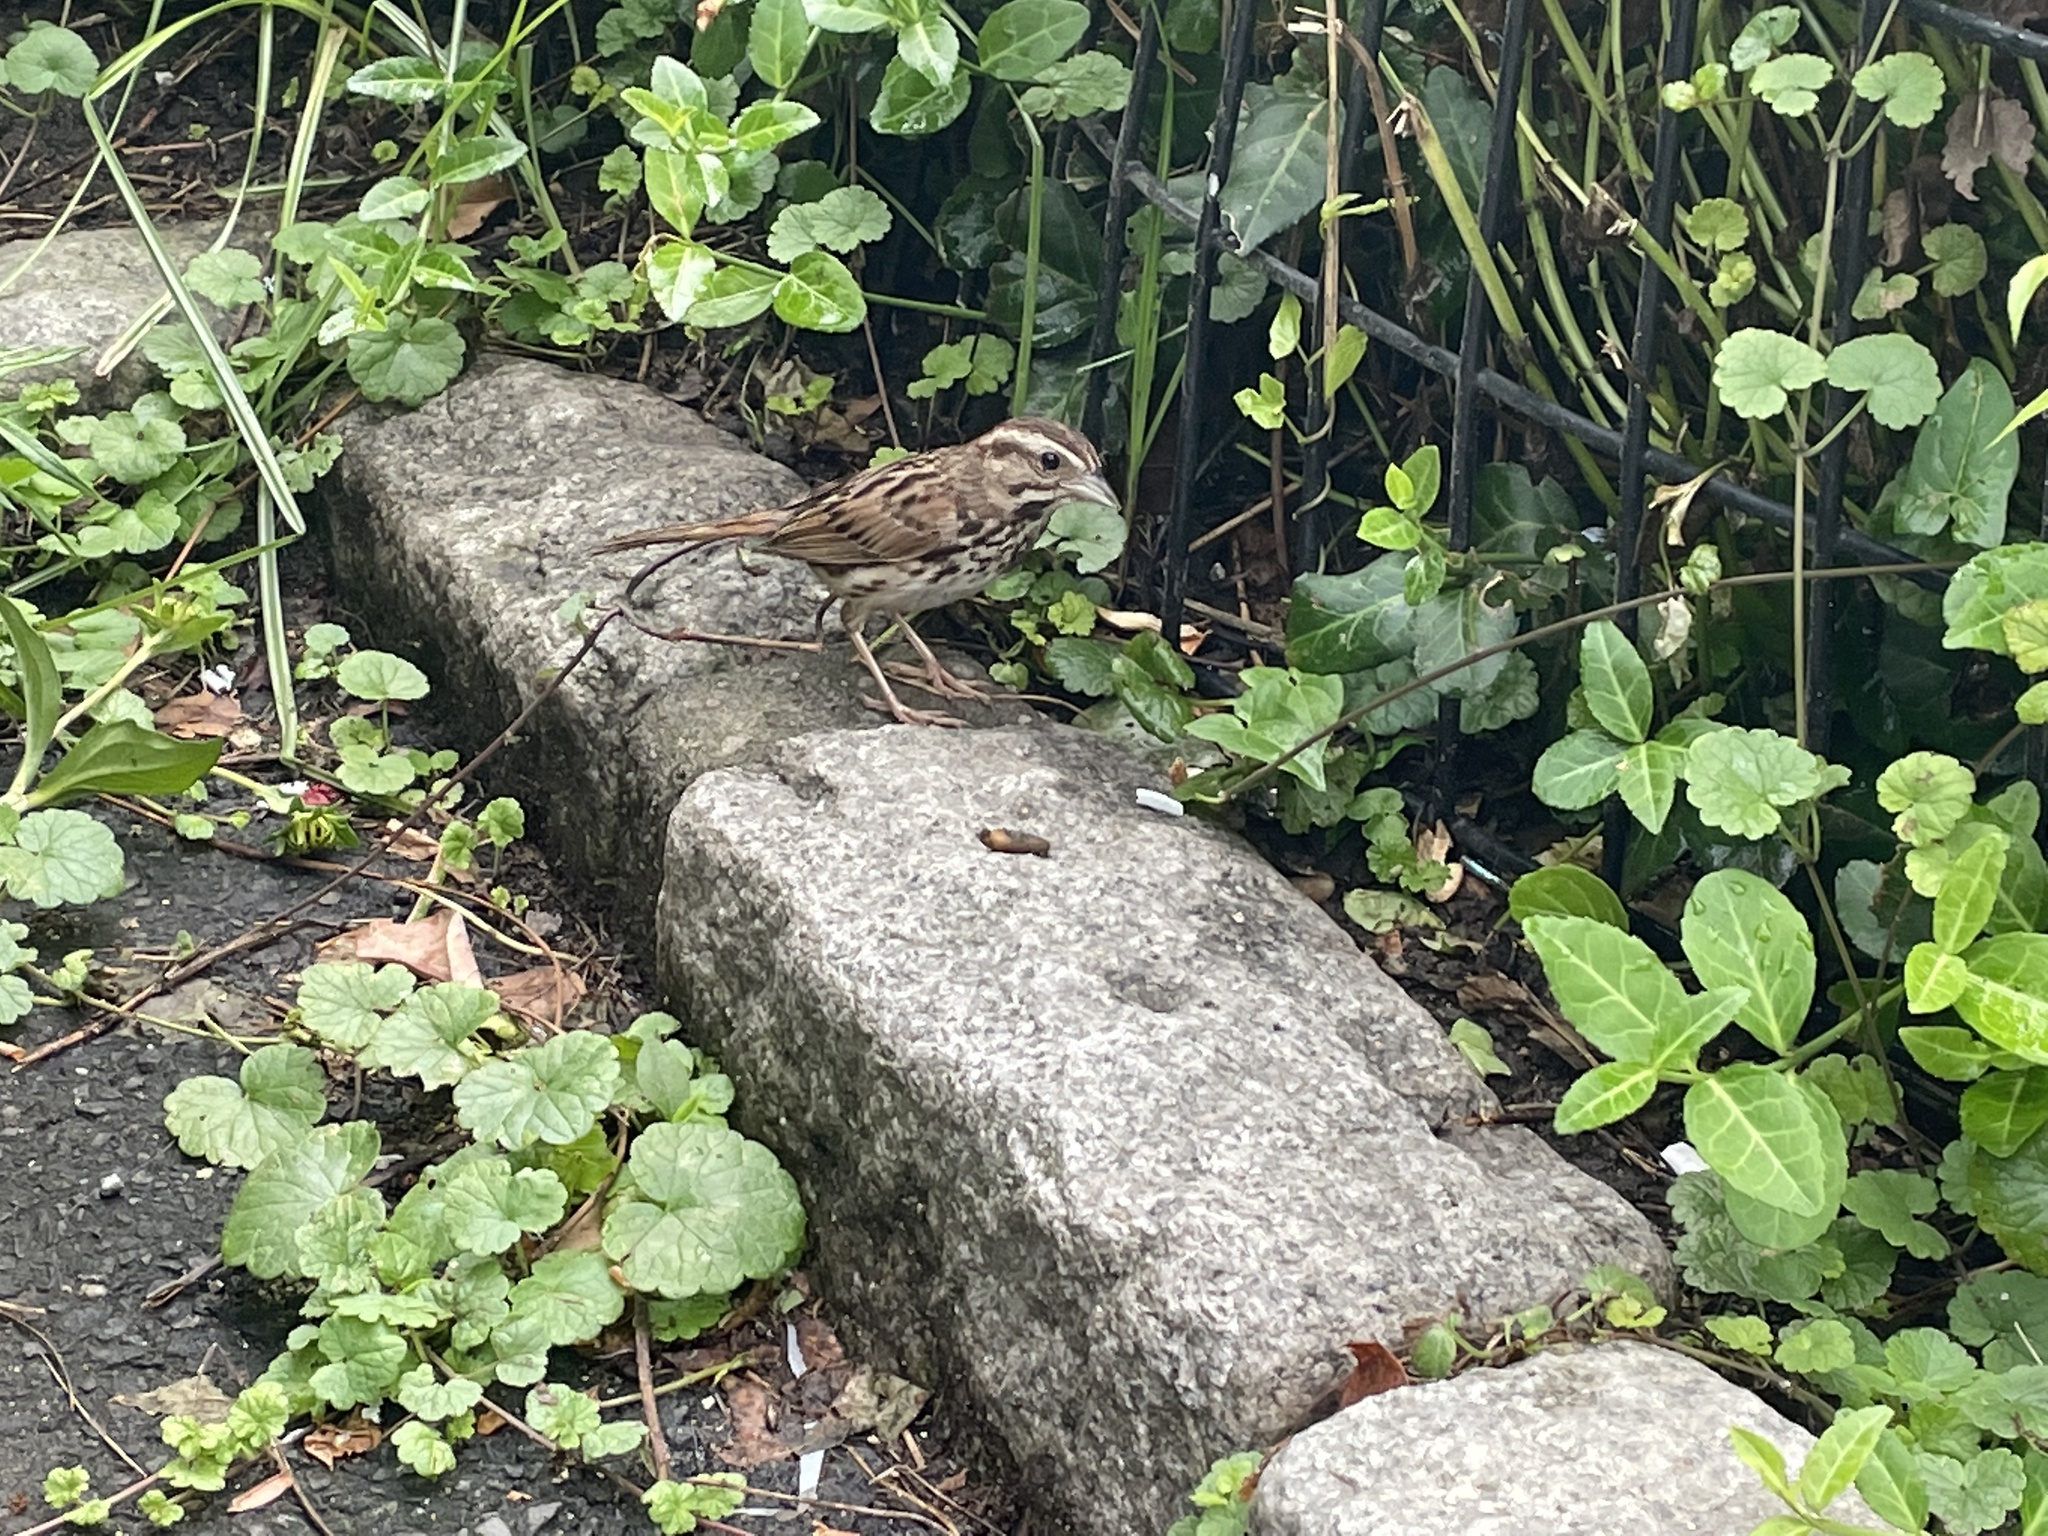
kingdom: Animalia
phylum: Chordata
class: Aves
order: Passeriformes
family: Passerellidae
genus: Melospiza
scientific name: Melospiza melodia
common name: Song sparrow
